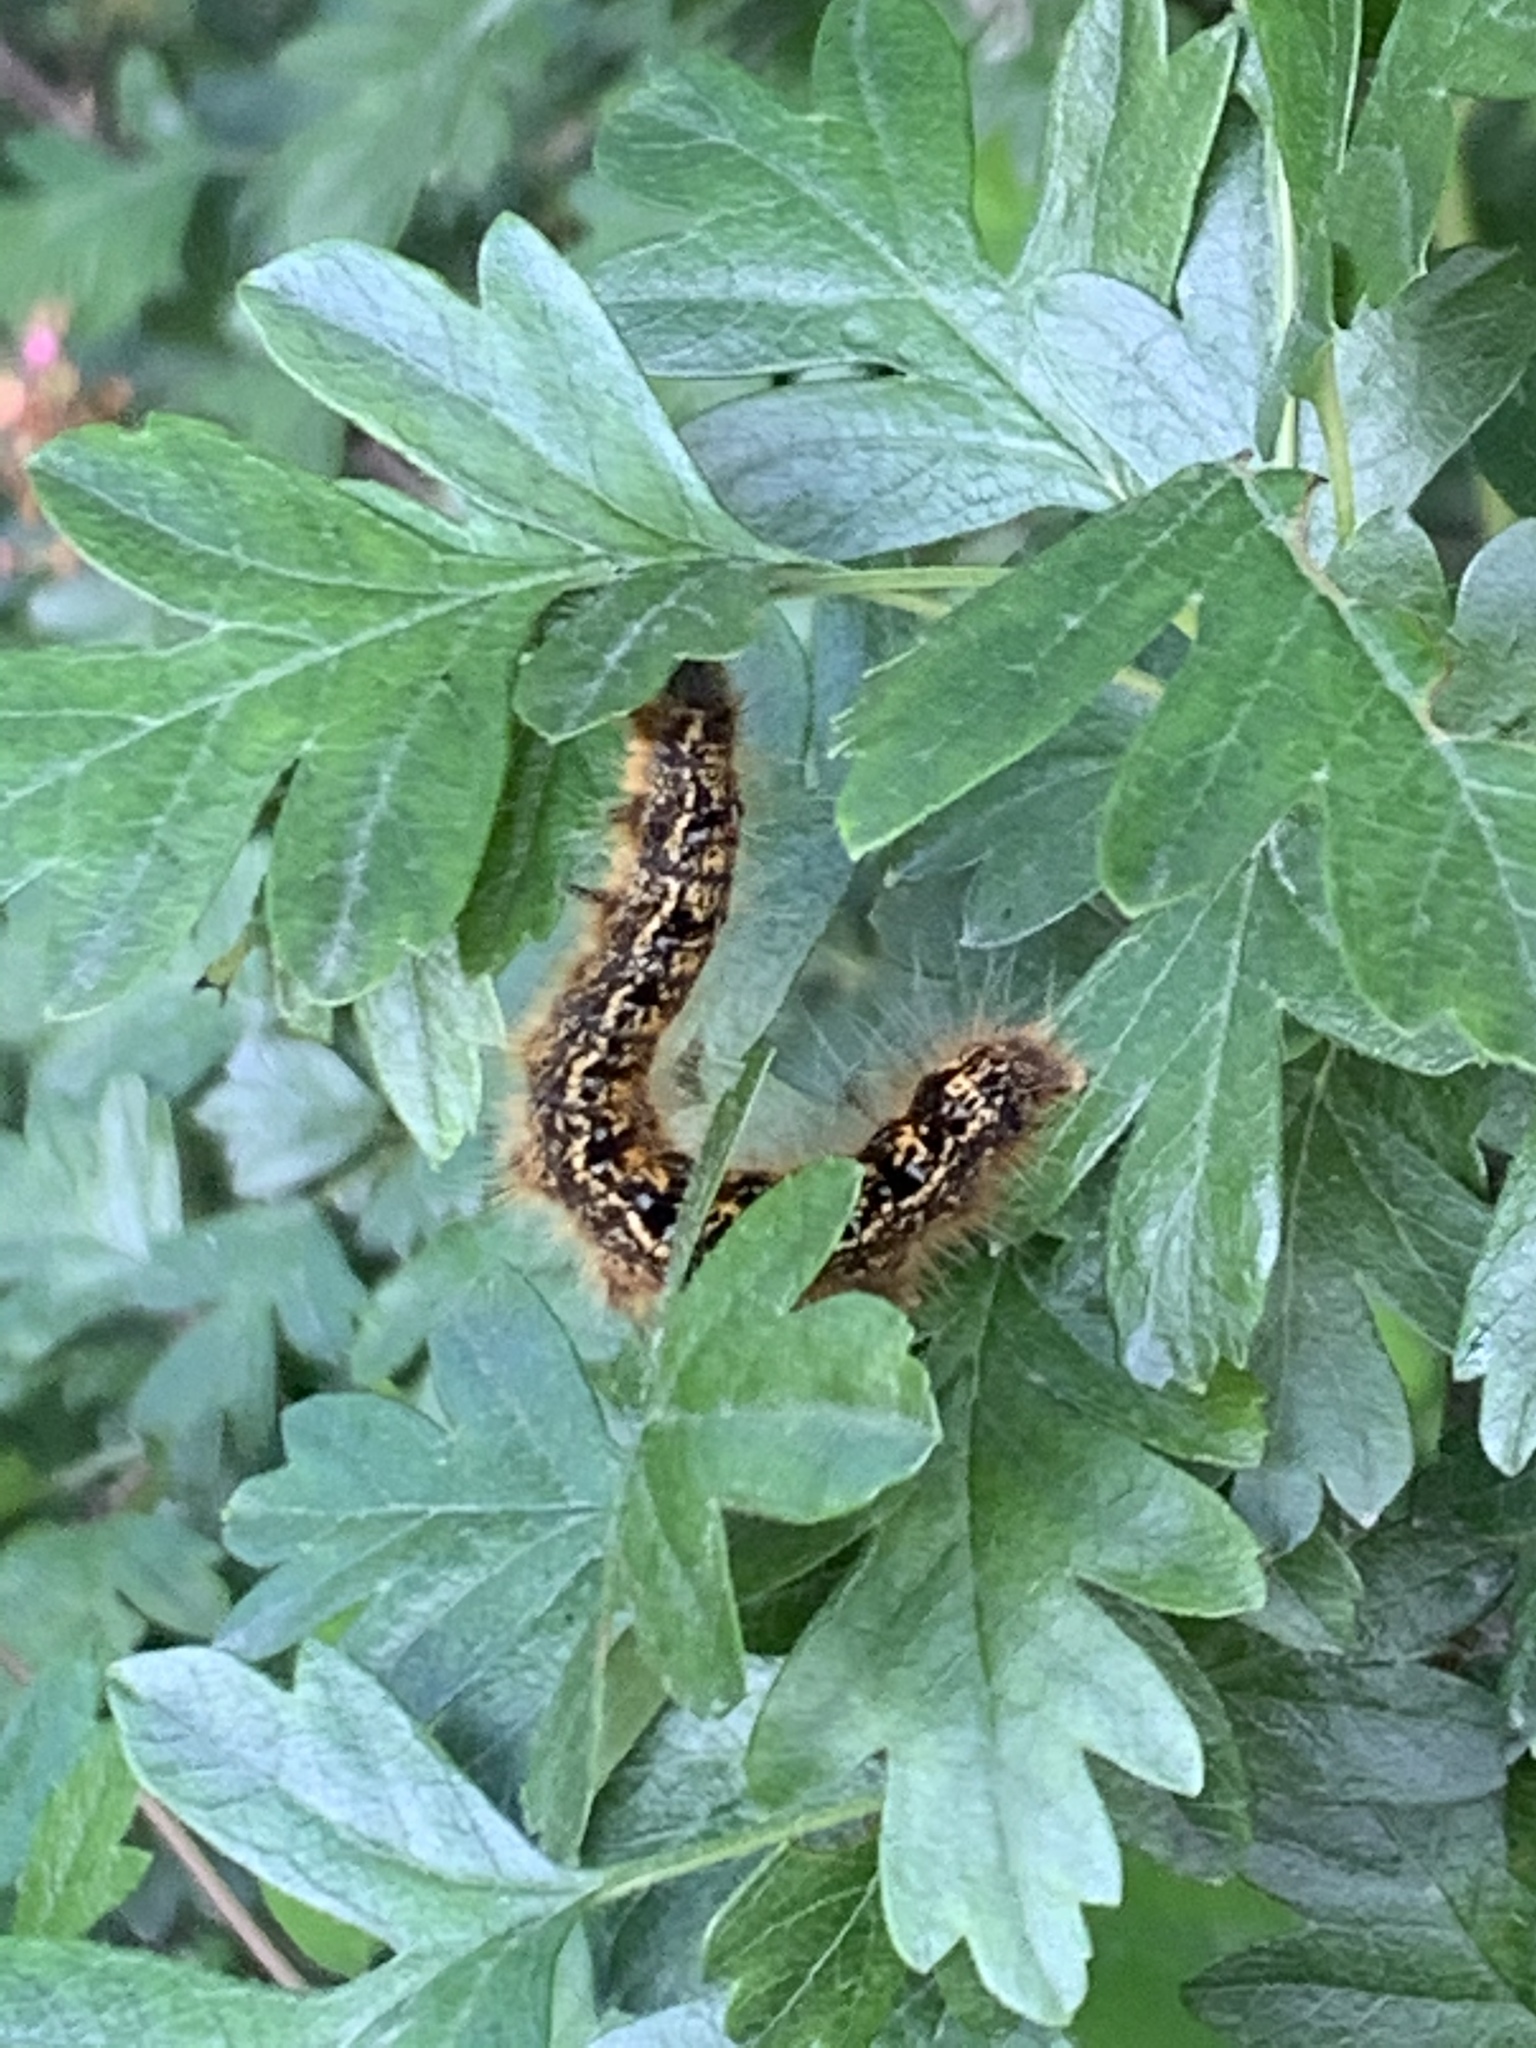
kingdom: Animalia
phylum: Arthropoda
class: Insecta
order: Lepidoptera
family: Lasiocampidae
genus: Malacosoma
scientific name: Malacosoma californica
